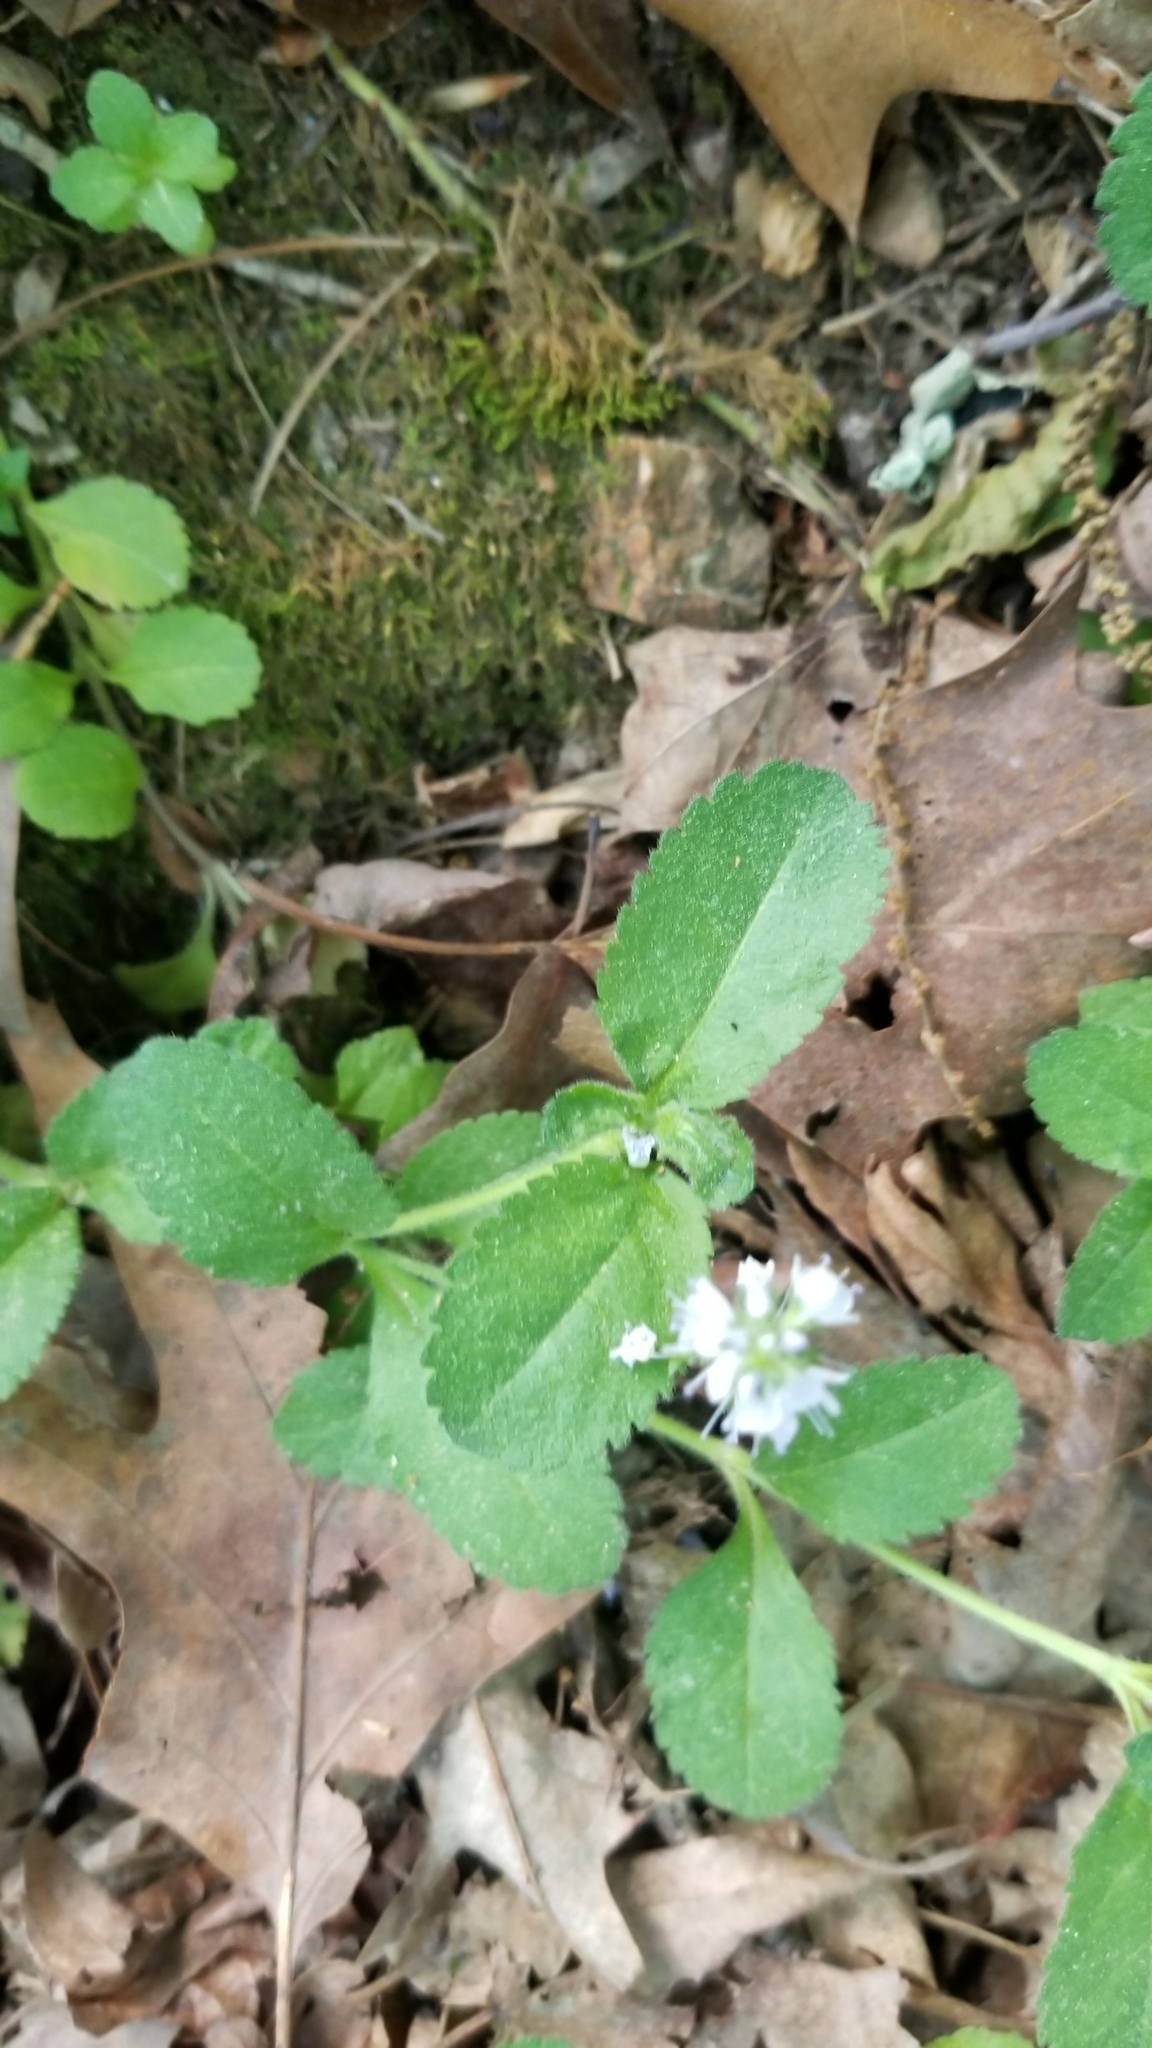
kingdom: Plantae
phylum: Tracheophyta
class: Magnoliopsida
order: Lamiales
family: Plantaginaceae
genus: Veronica
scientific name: Veronica officinalis
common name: Common speedwell
